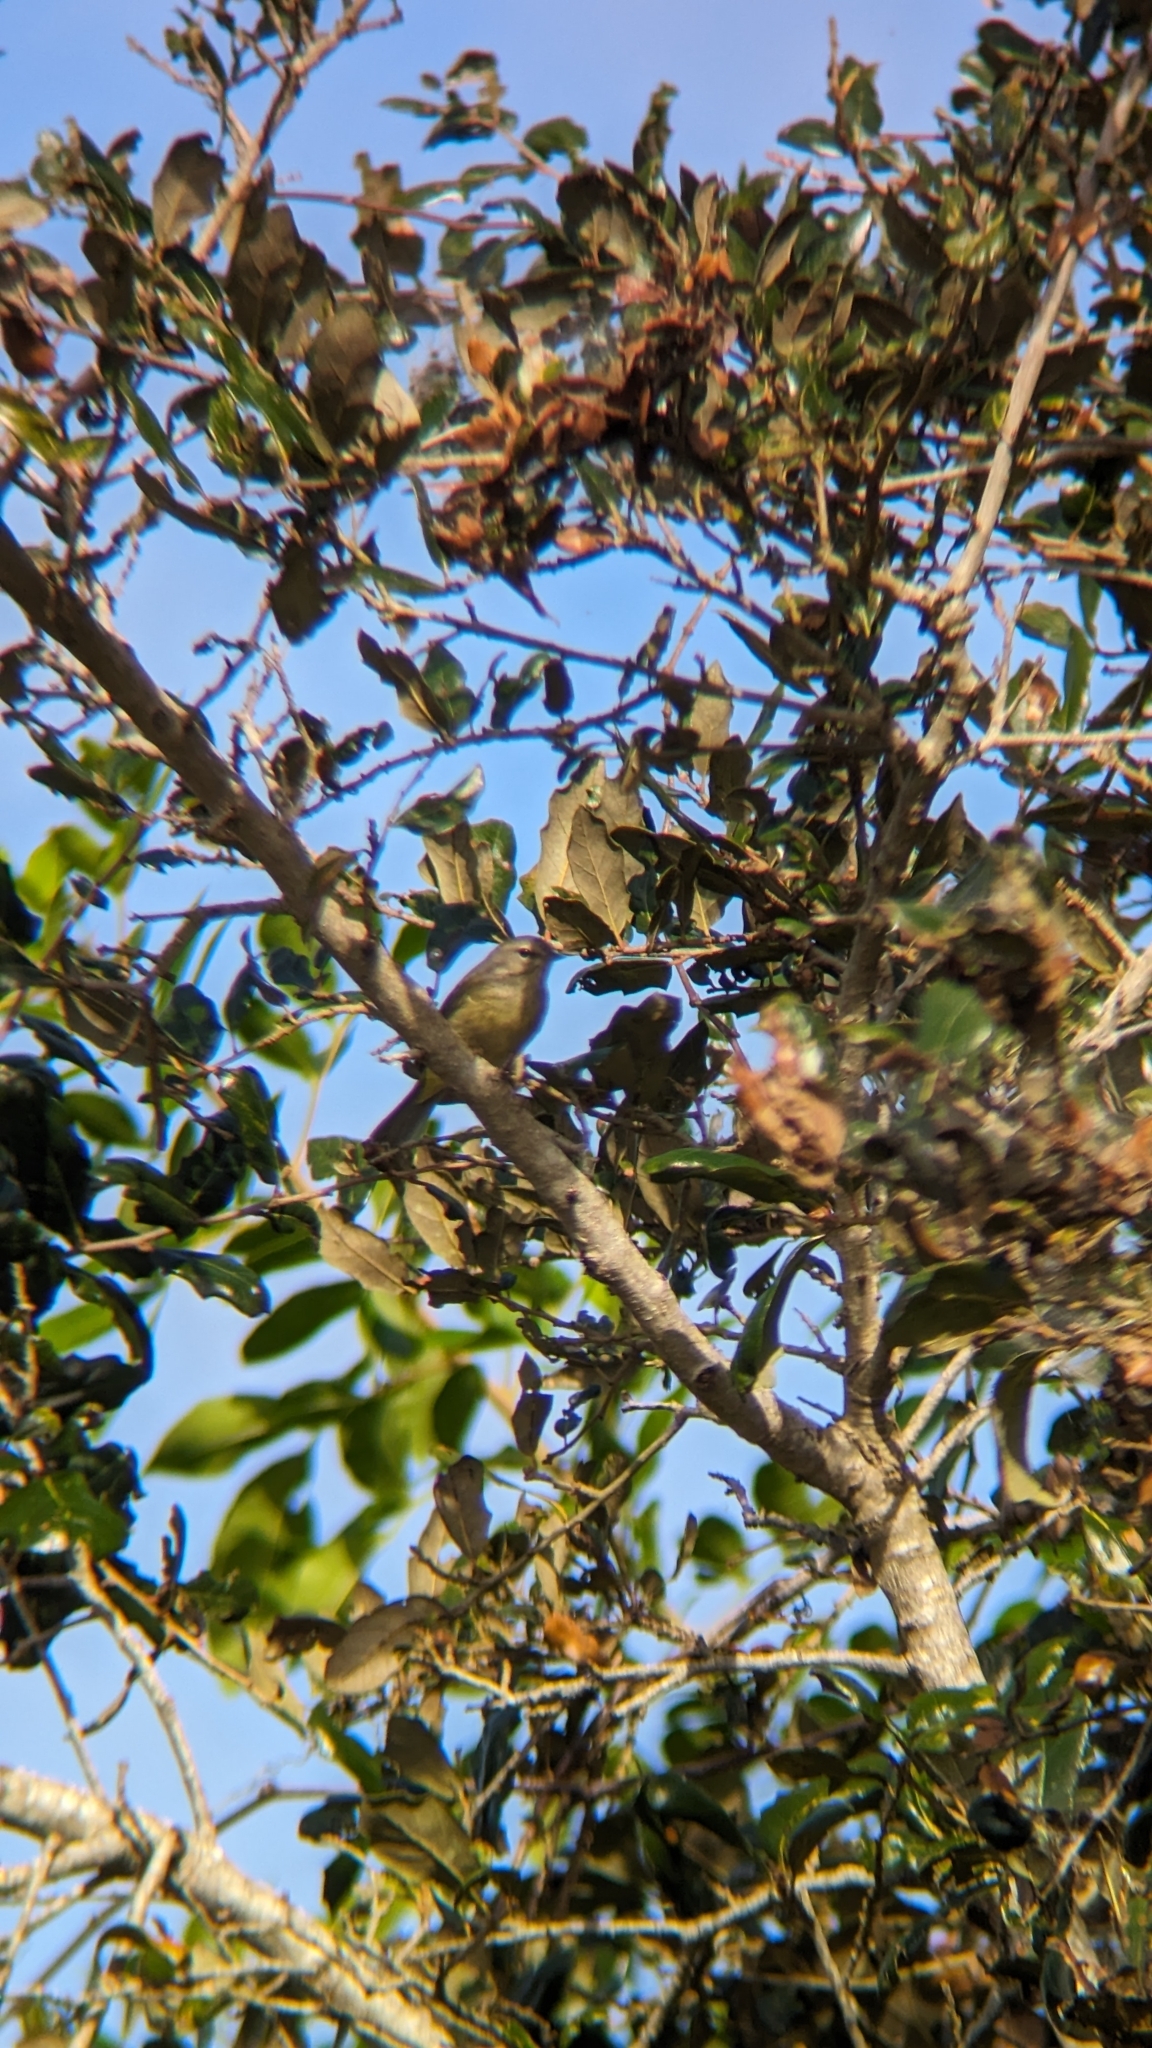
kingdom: Animalia
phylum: Chordata
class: Aves
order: Passeriformes
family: Parulidae
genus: Leiothlypis
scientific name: Leiothlypis celata
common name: Orange-crowned warbler
